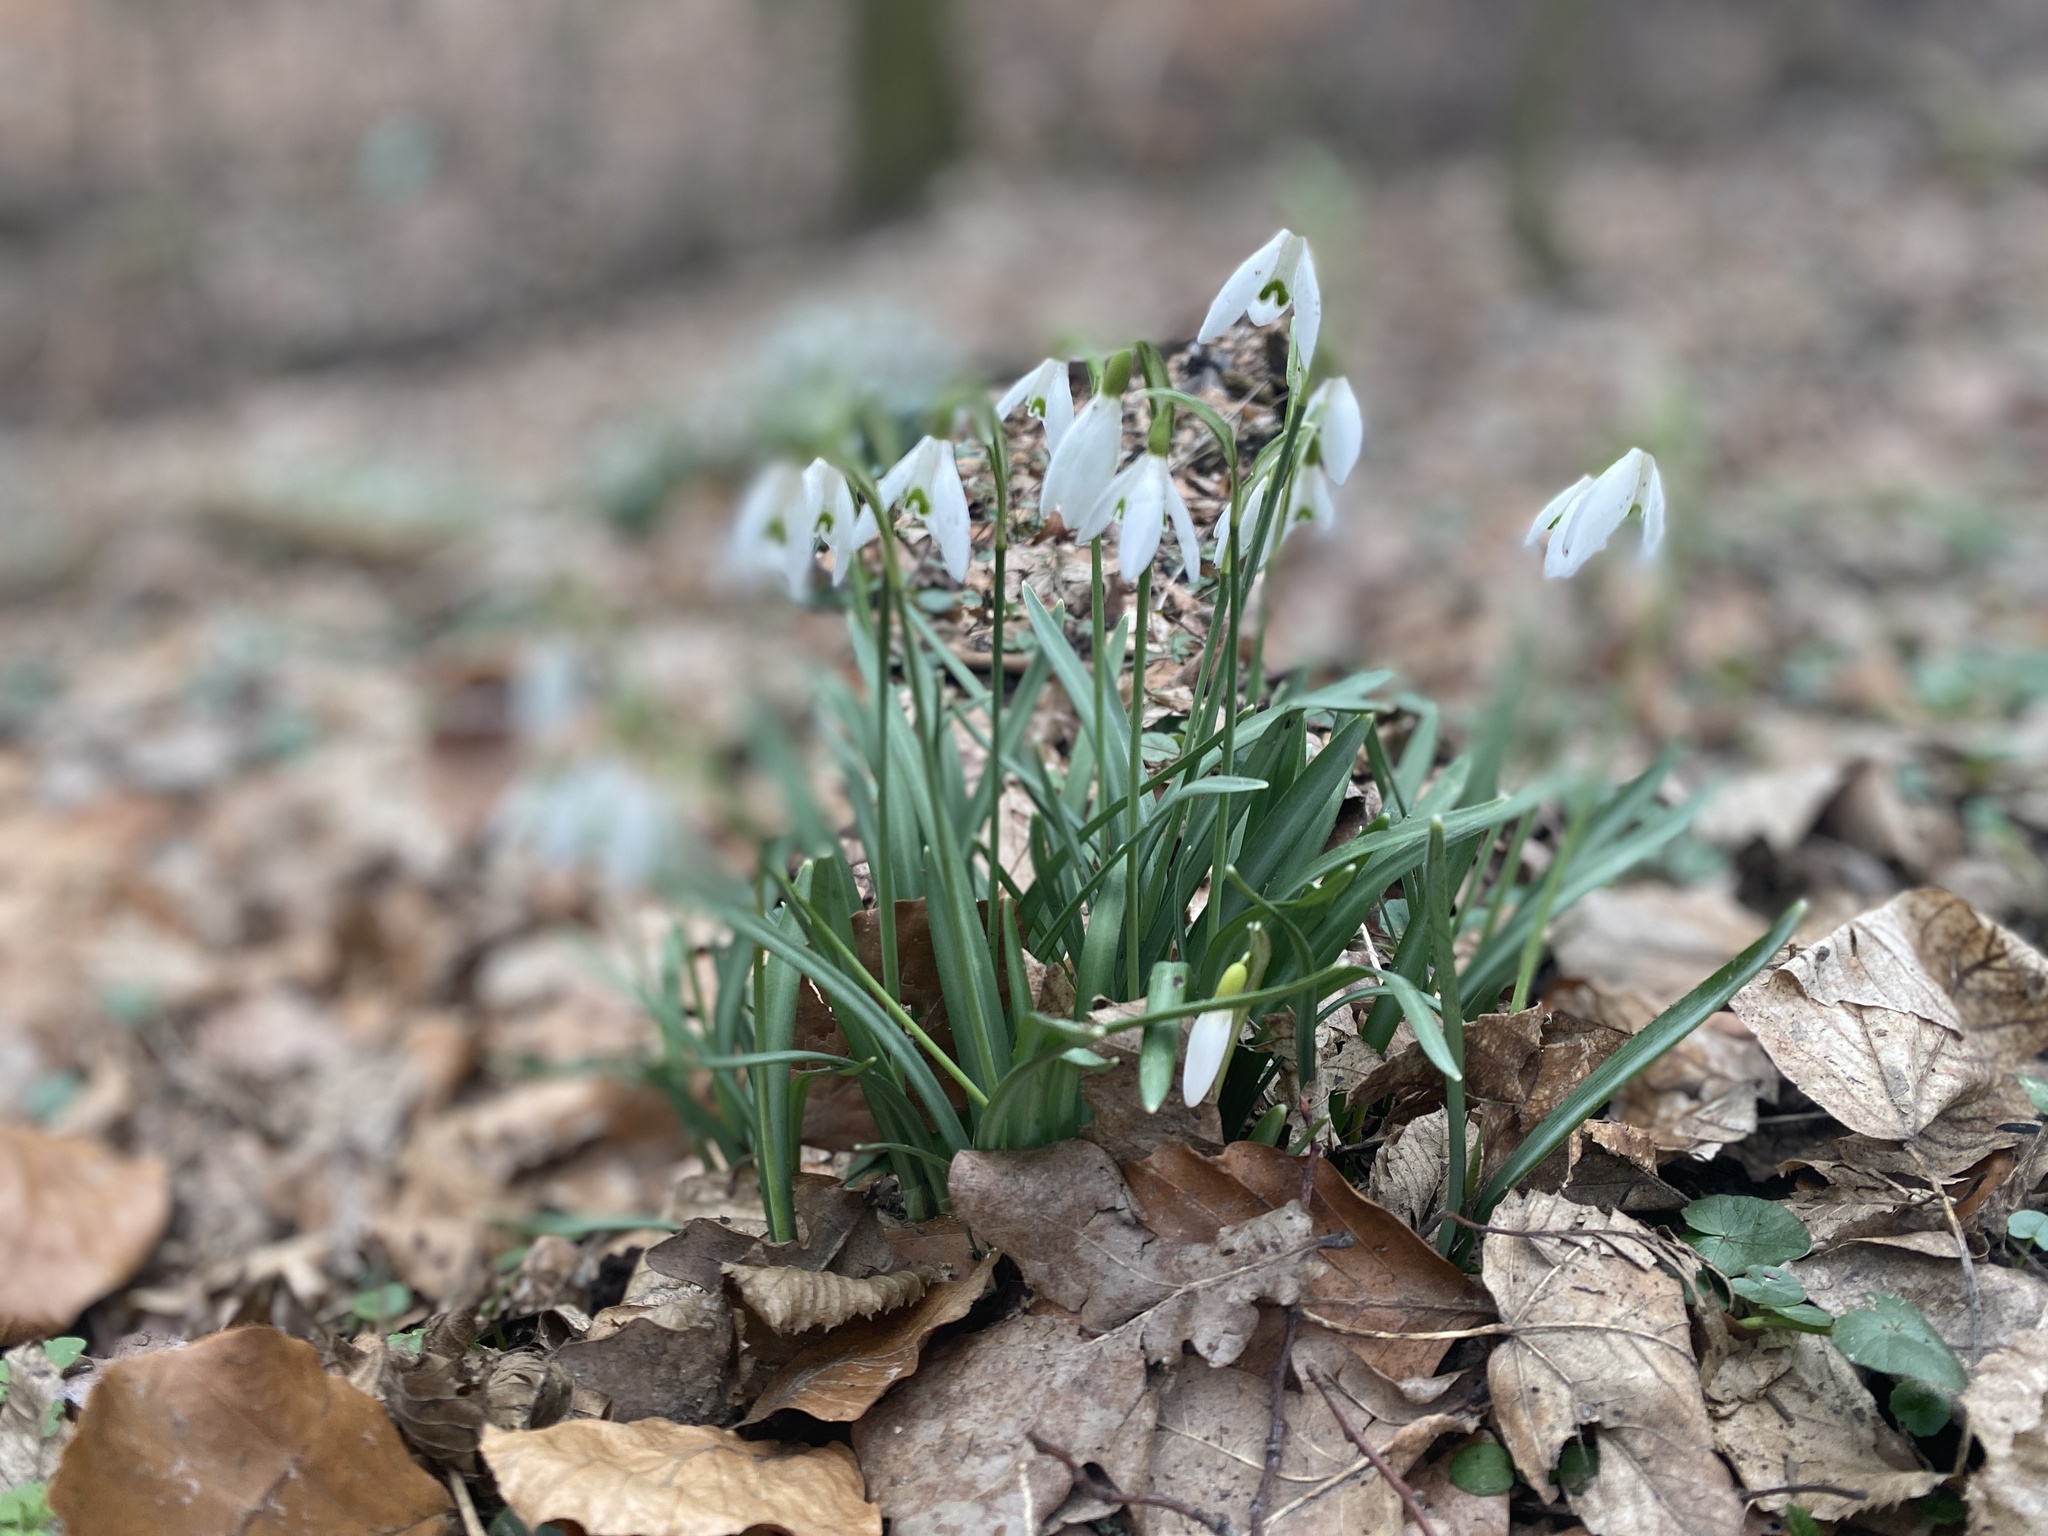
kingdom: Plantae
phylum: Tracheophyta
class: Liliopsida
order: Asparagales
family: Amaryllidaceae
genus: Galanthus
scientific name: Galanthus nivalis
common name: Snowdrop
